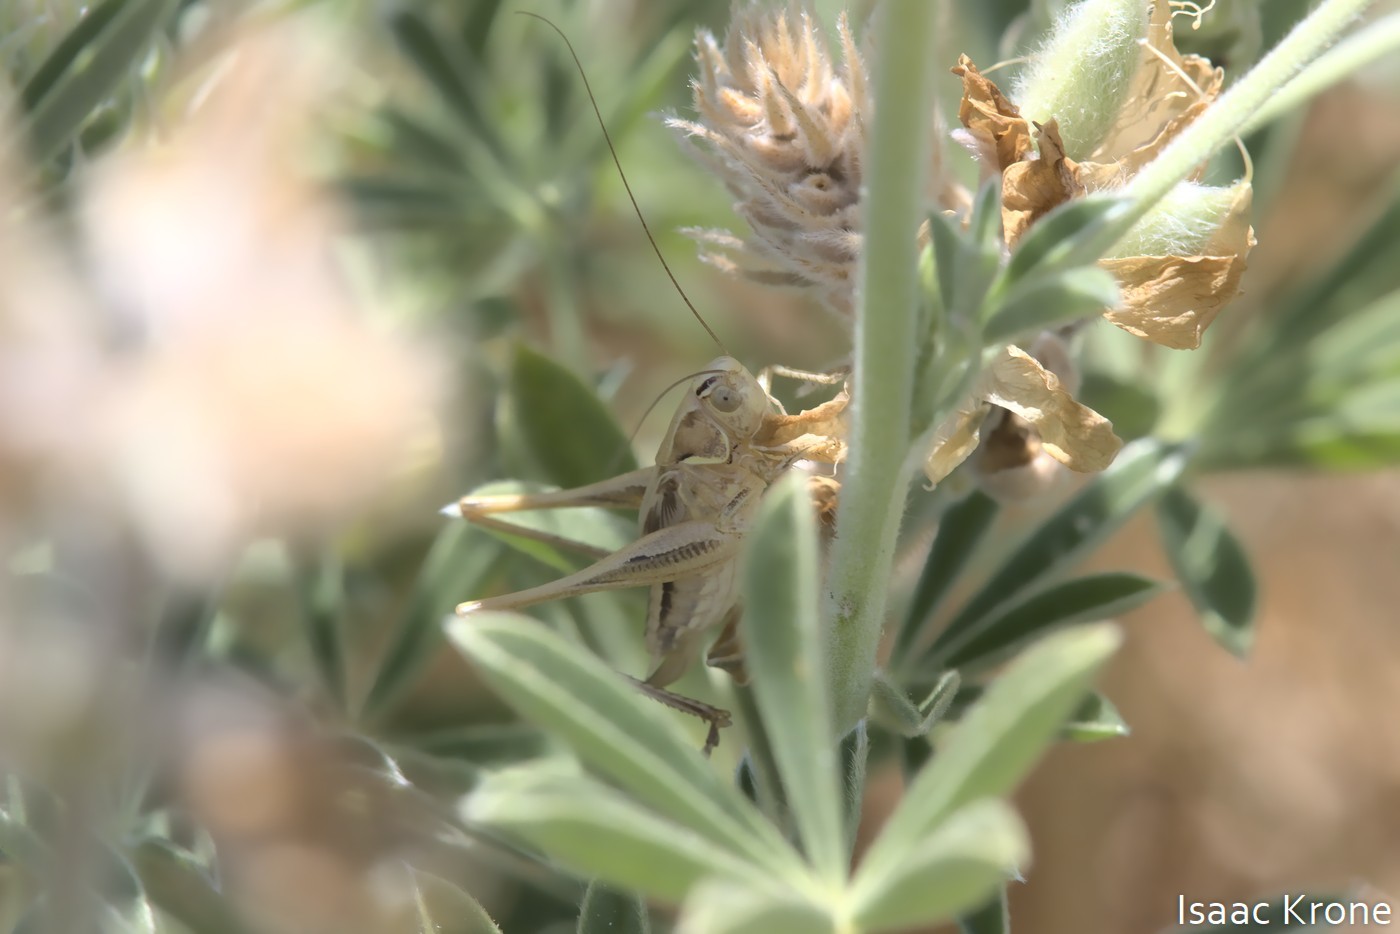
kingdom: Animalia
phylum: Arthropoda
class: Insecta
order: Orthoptera
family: Tettigoniidae
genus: Tessellana
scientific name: Tessellana tessellata
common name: Grasshopper
